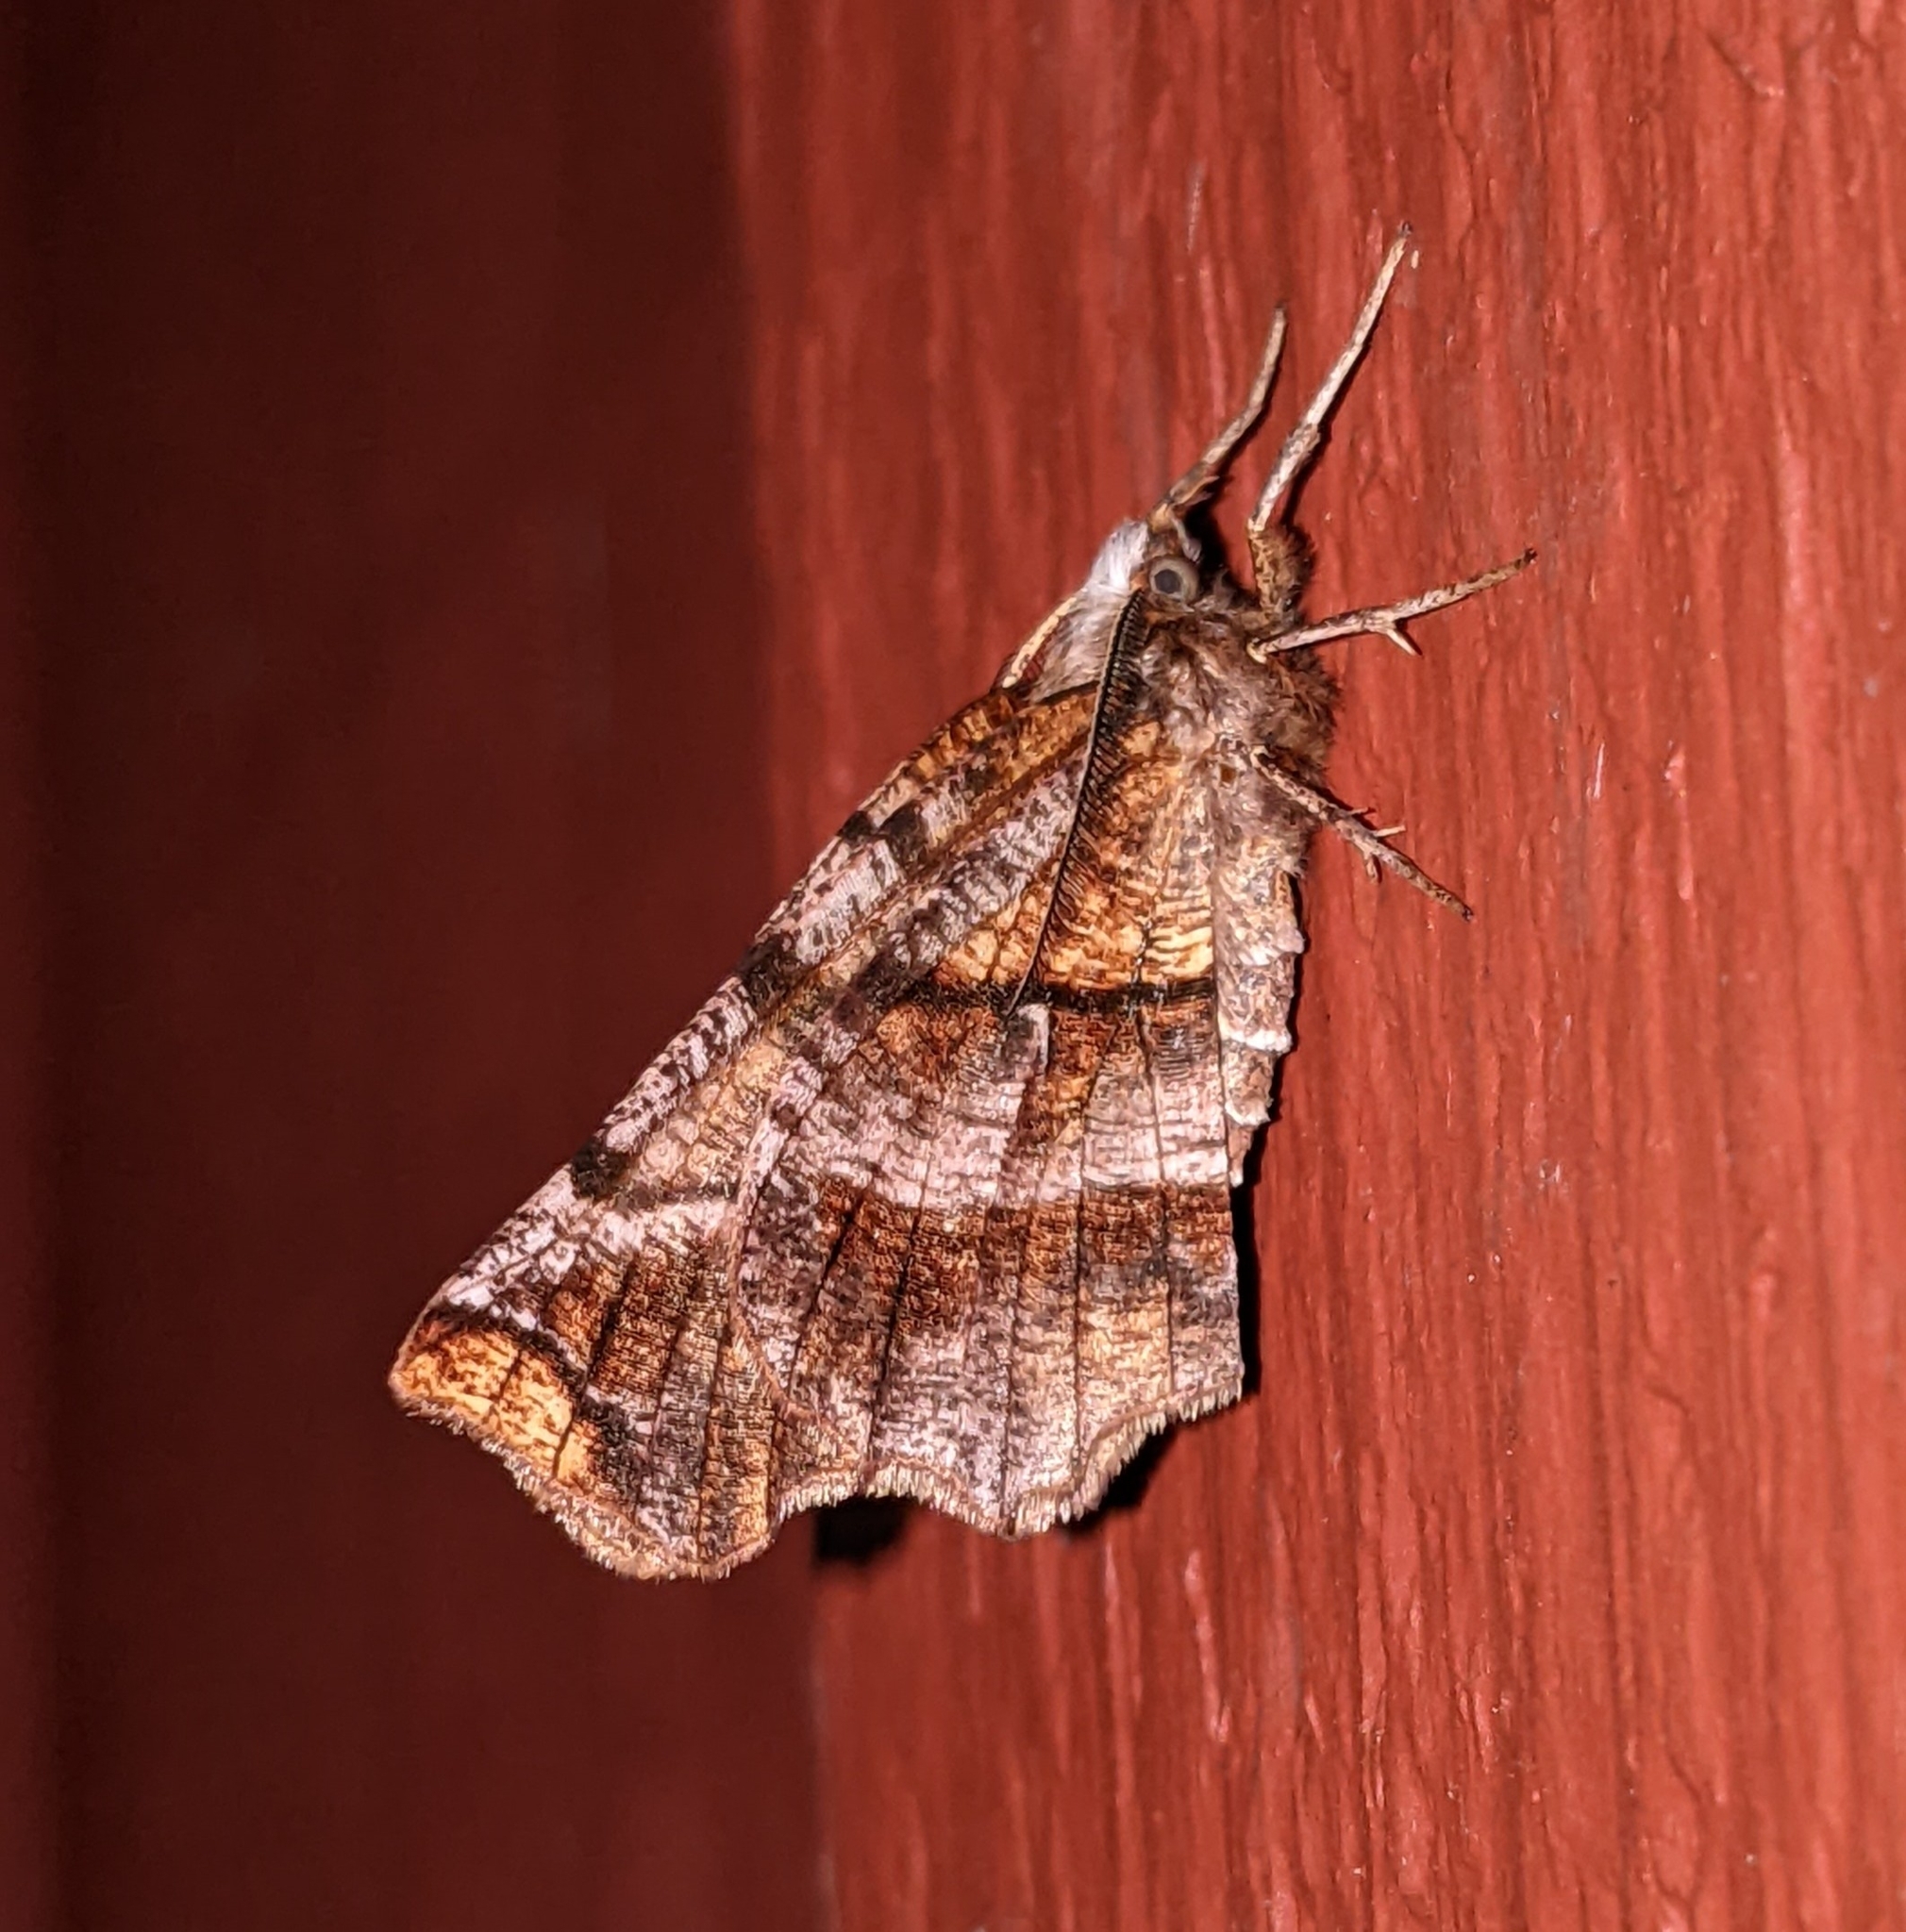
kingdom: Animalia
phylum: Arthropoda
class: Insecta
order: Lepidoptera
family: Geometridae
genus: Selenia
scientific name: Selenia alciphearia
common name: Brown-tipped thorn
